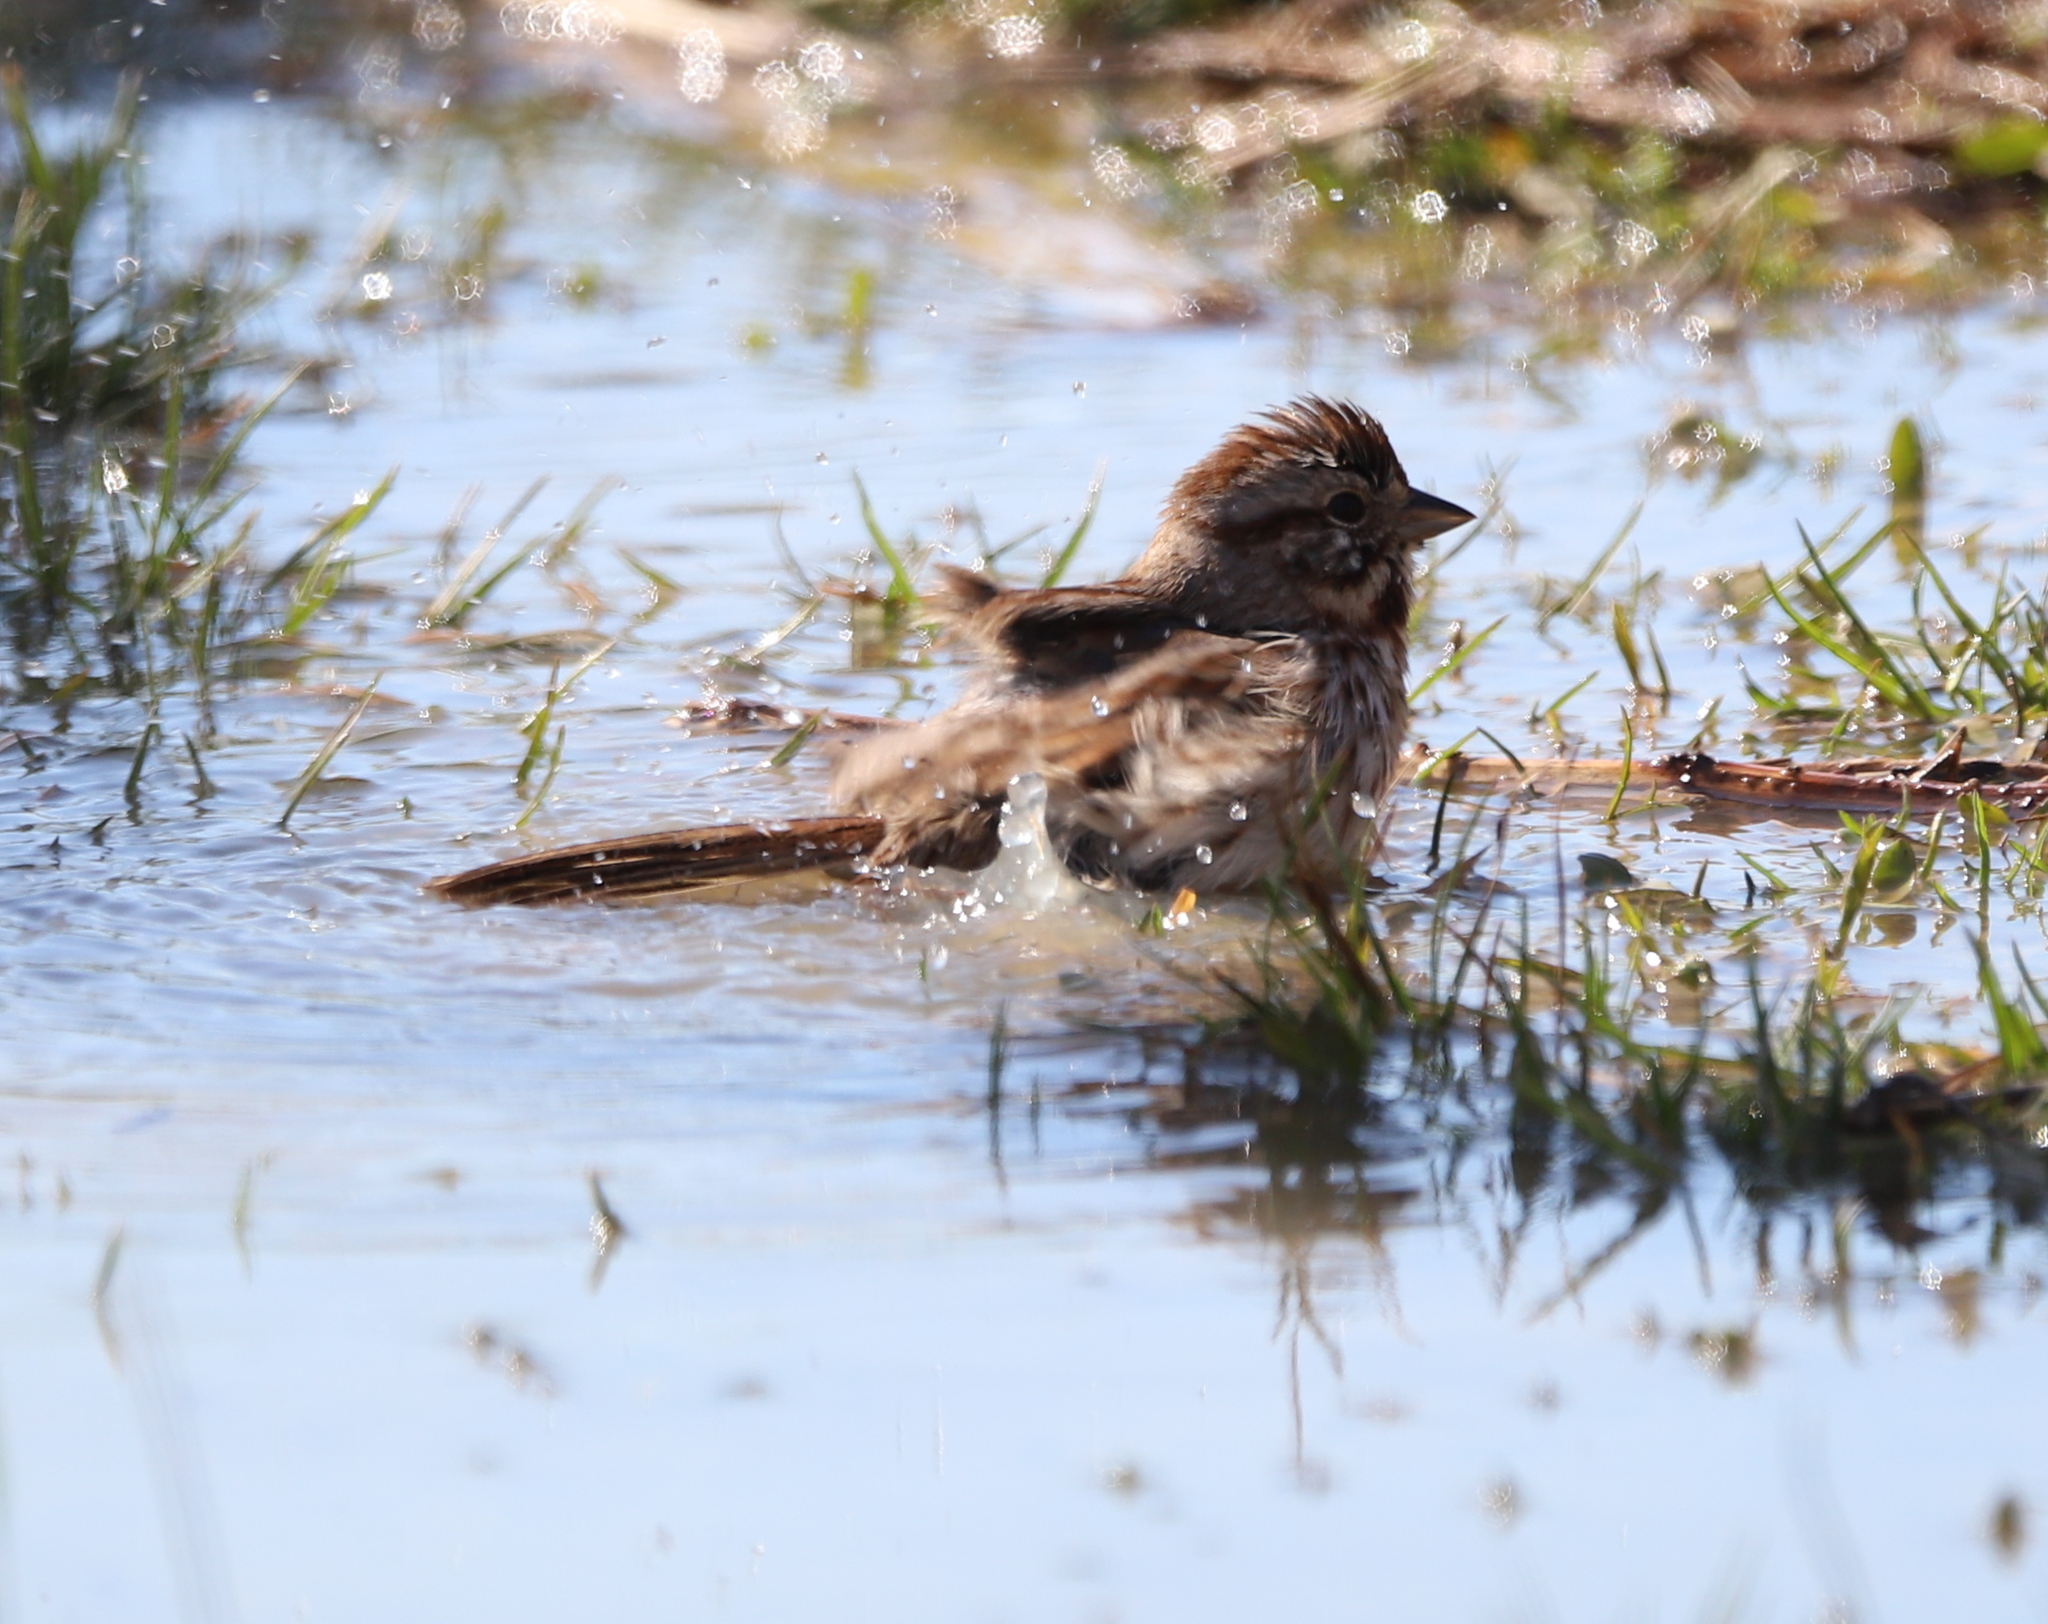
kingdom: Animalia
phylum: Chordata
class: Aves
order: Passeriformes
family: Passerellidae
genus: Melospiza
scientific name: Melospiza melodia
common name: Song sparrow
